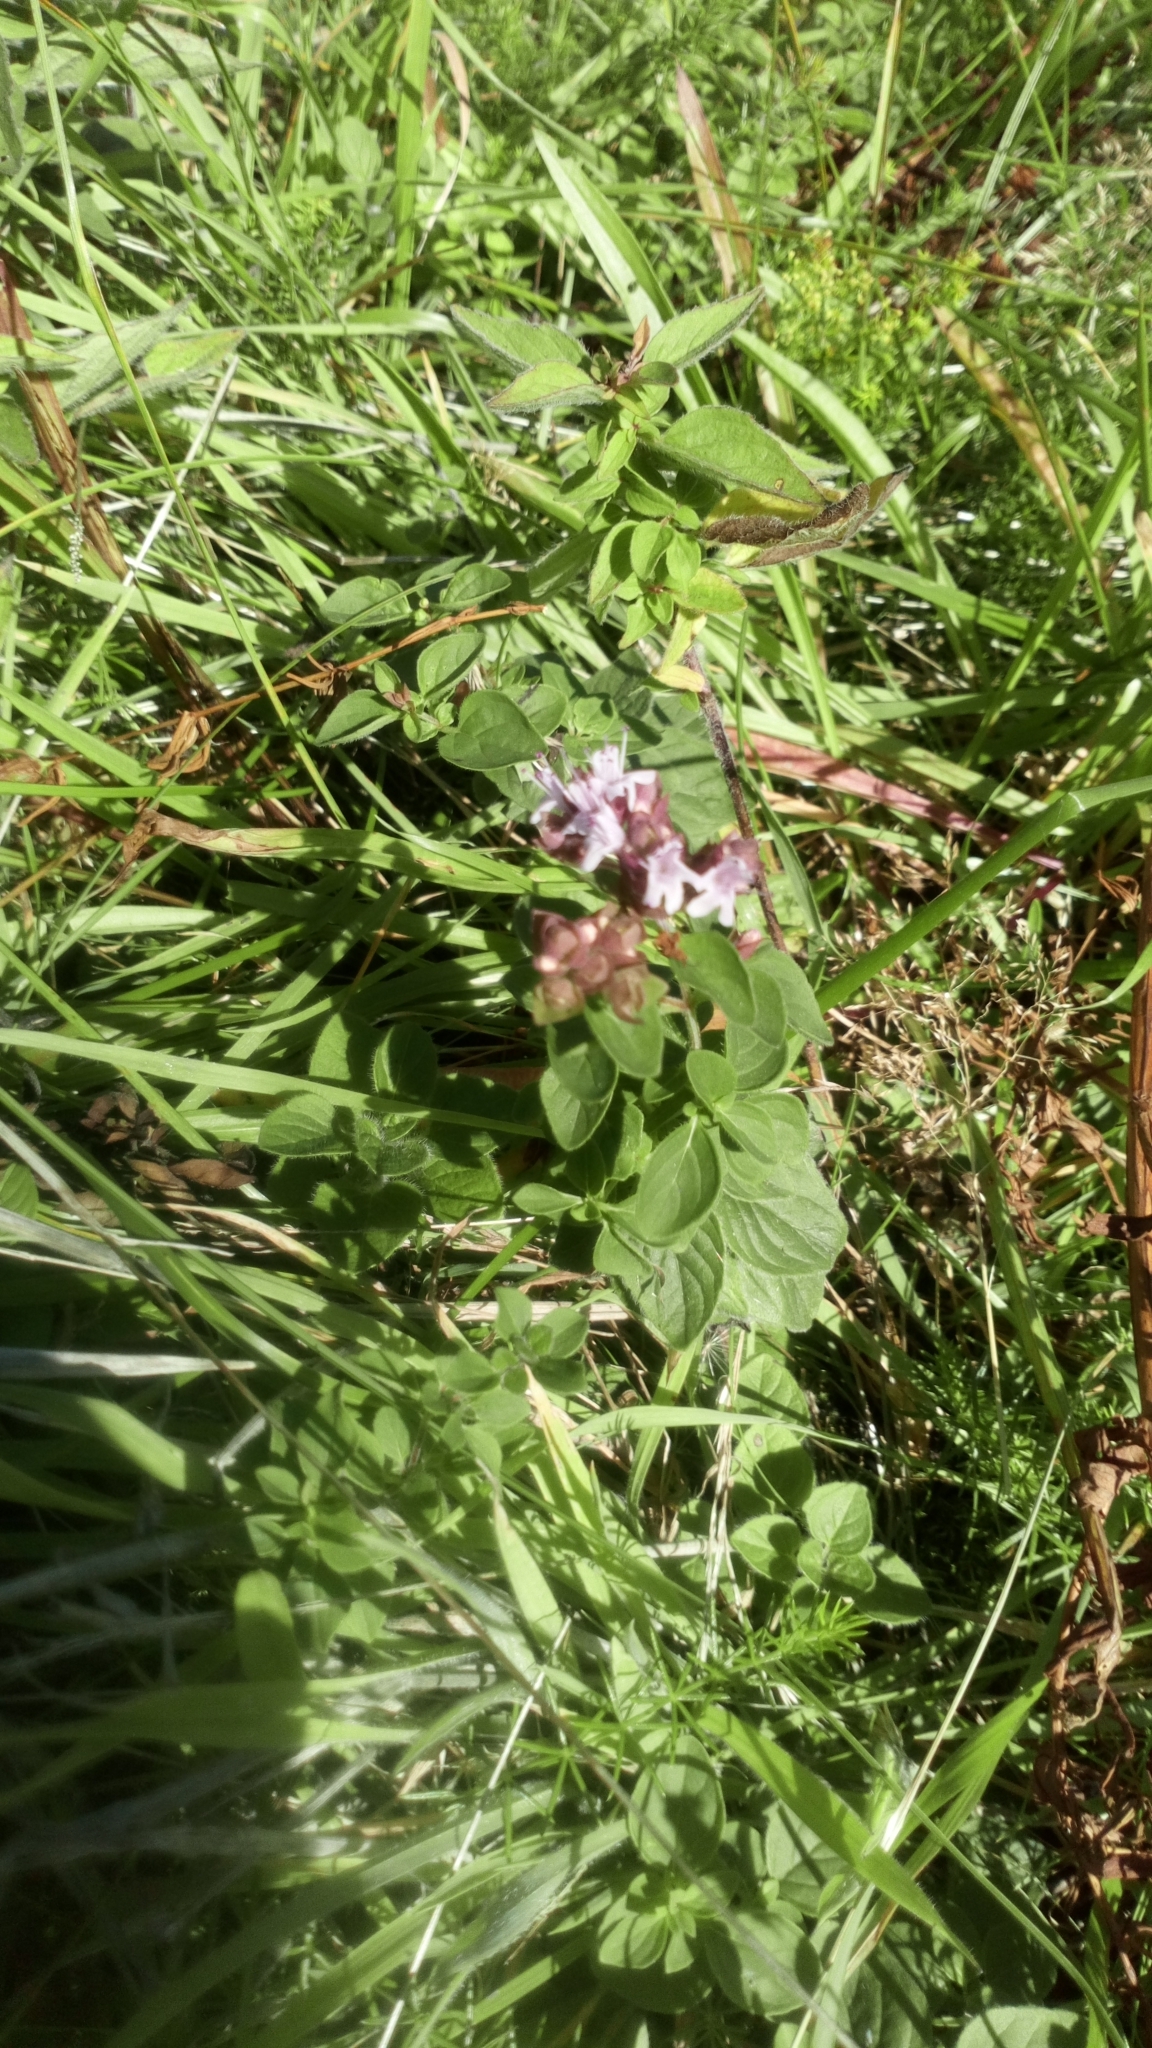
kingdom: Plantae
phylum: Tracheophyta
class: Magnoliopsida
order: Lamiales
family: Lamiaceae
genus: Origanum
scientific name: Origanum vulgare
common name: Wild marjoram
